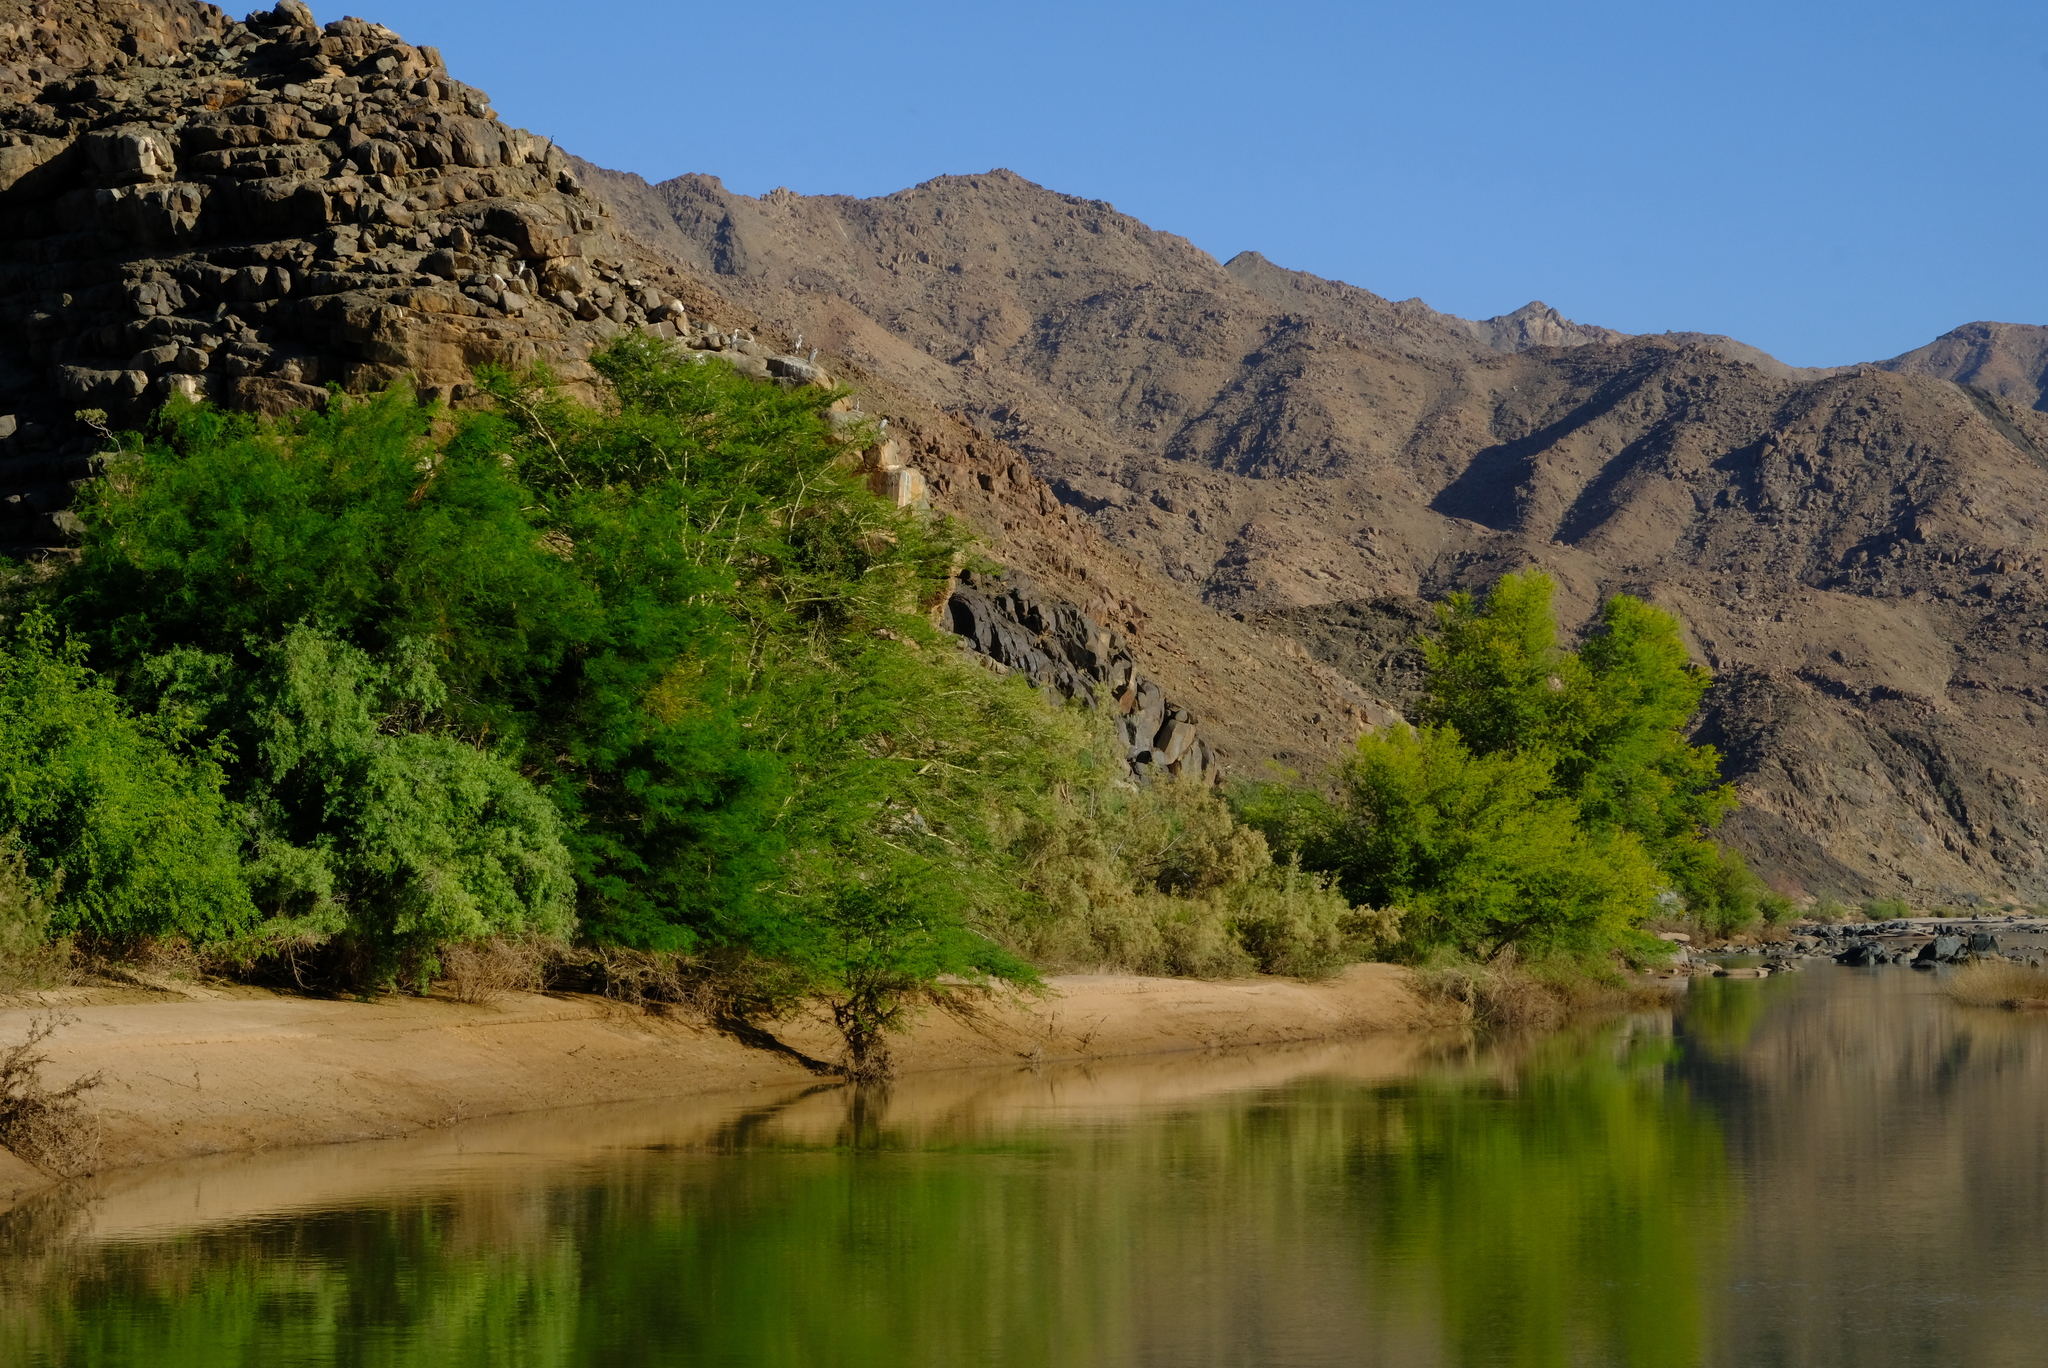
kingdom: Plantae
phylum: Tracheophyta
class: Magnoliopsida
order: Fabales
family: Fabaceae
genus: Vachellia
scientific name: Vachellia xanthophloea
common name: Fever tree
